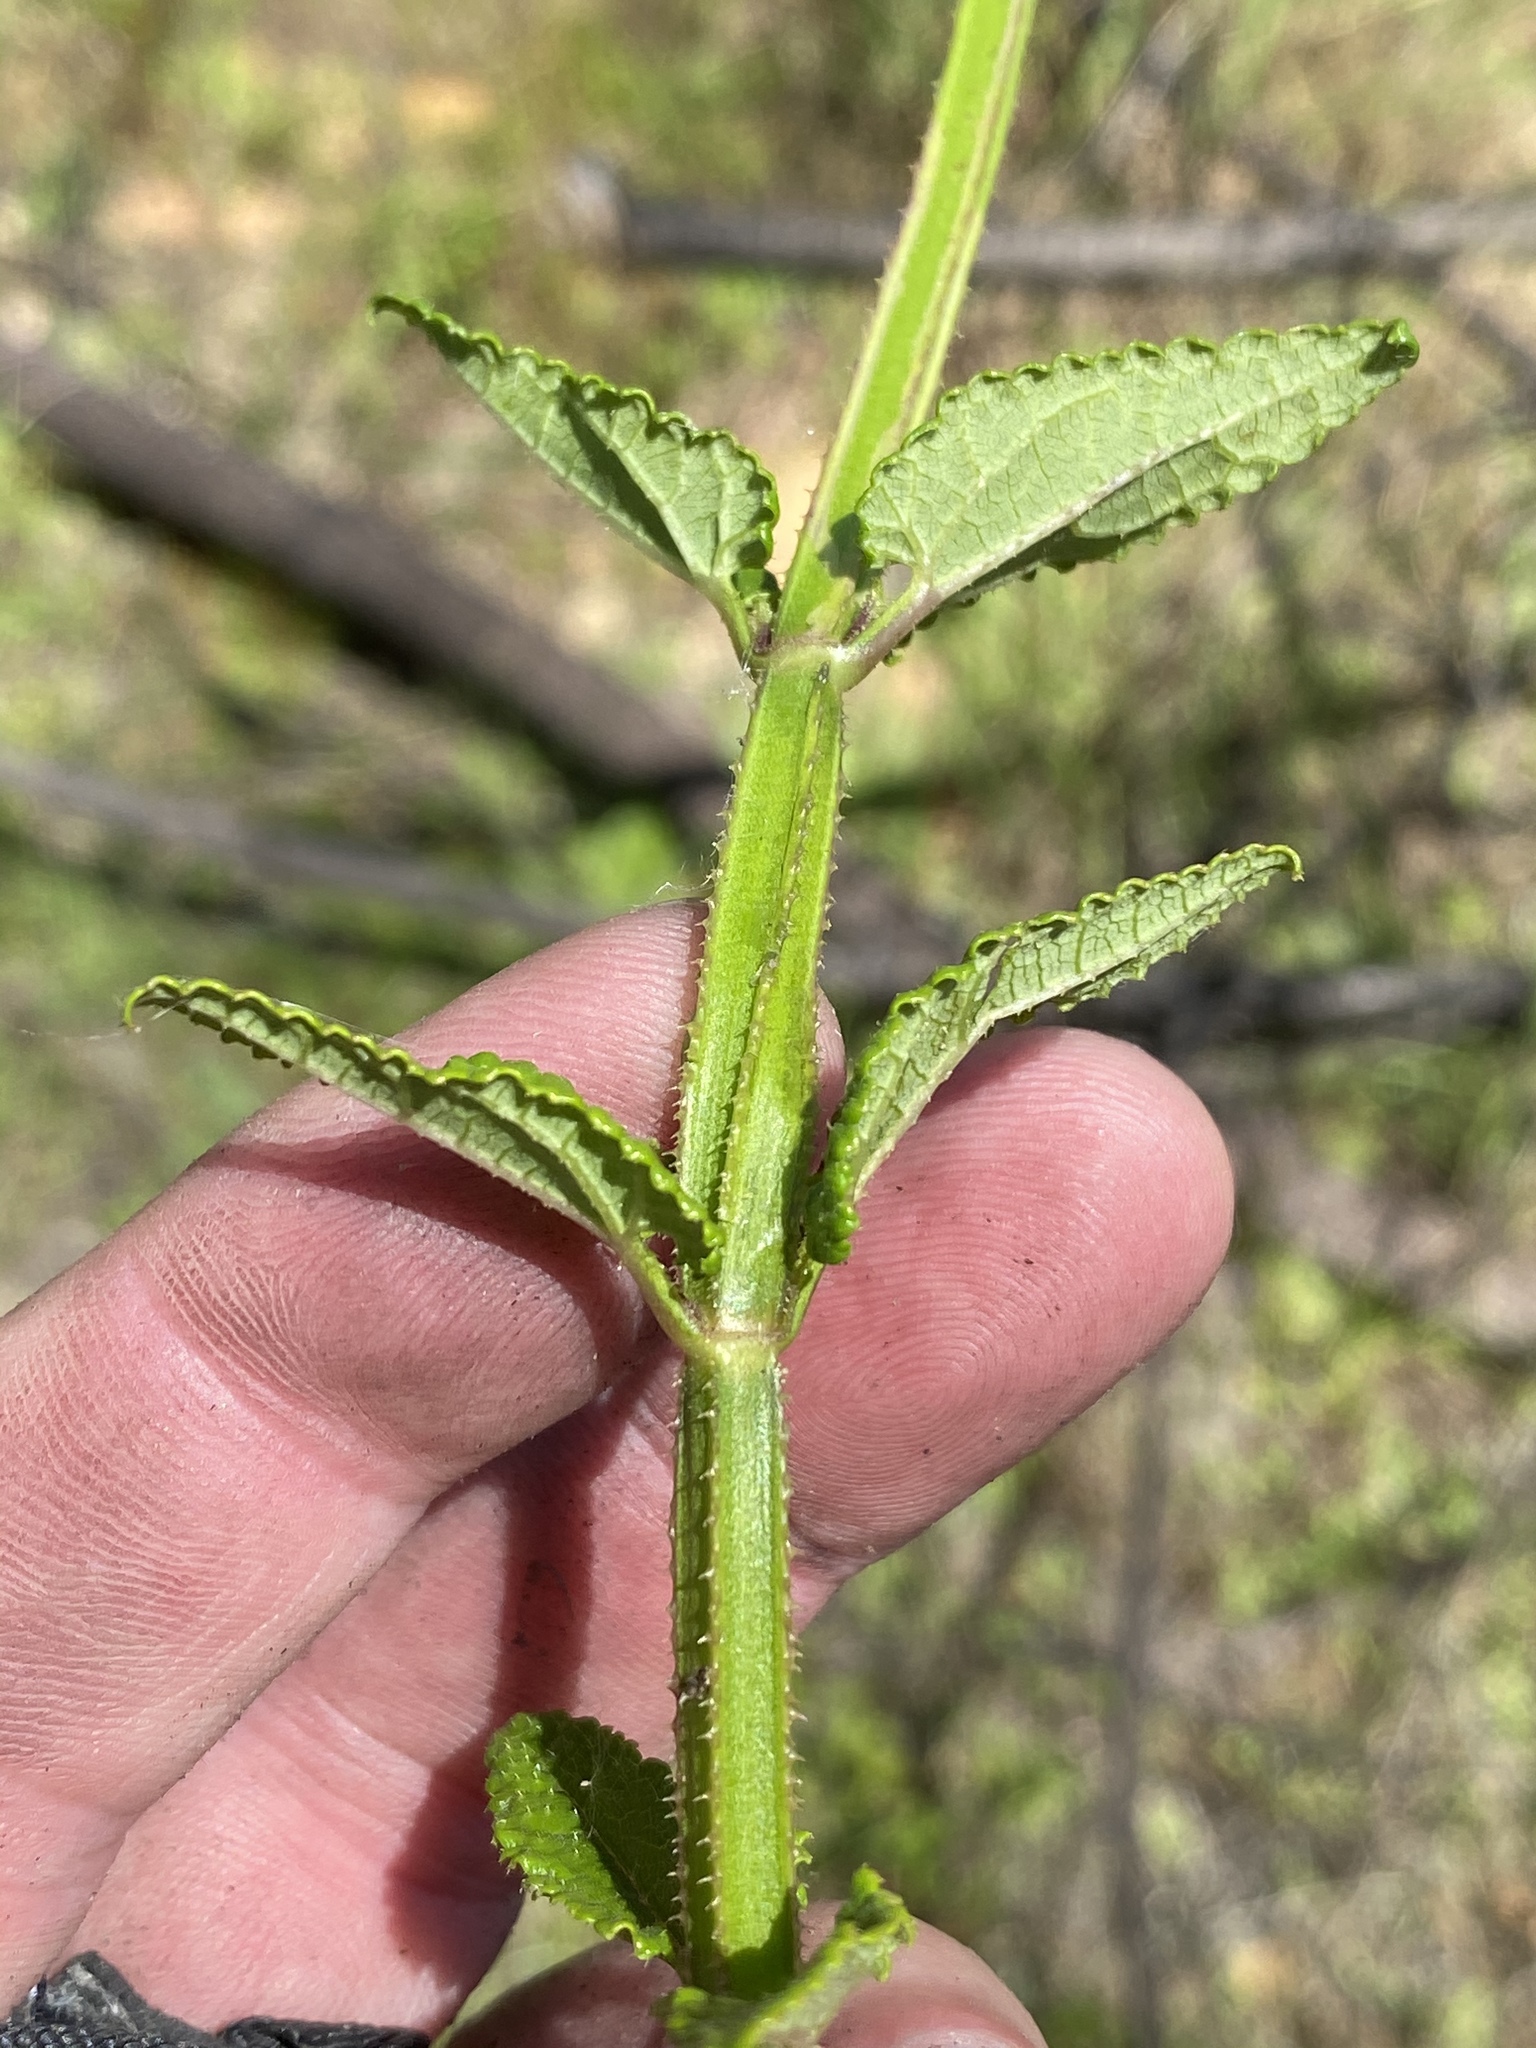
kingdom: Plantae
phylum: Tracheophyta
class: Magnoliopsida
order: Lamiales
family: Lamiaceae
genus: Stachys
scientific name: Stachys thunbergii
